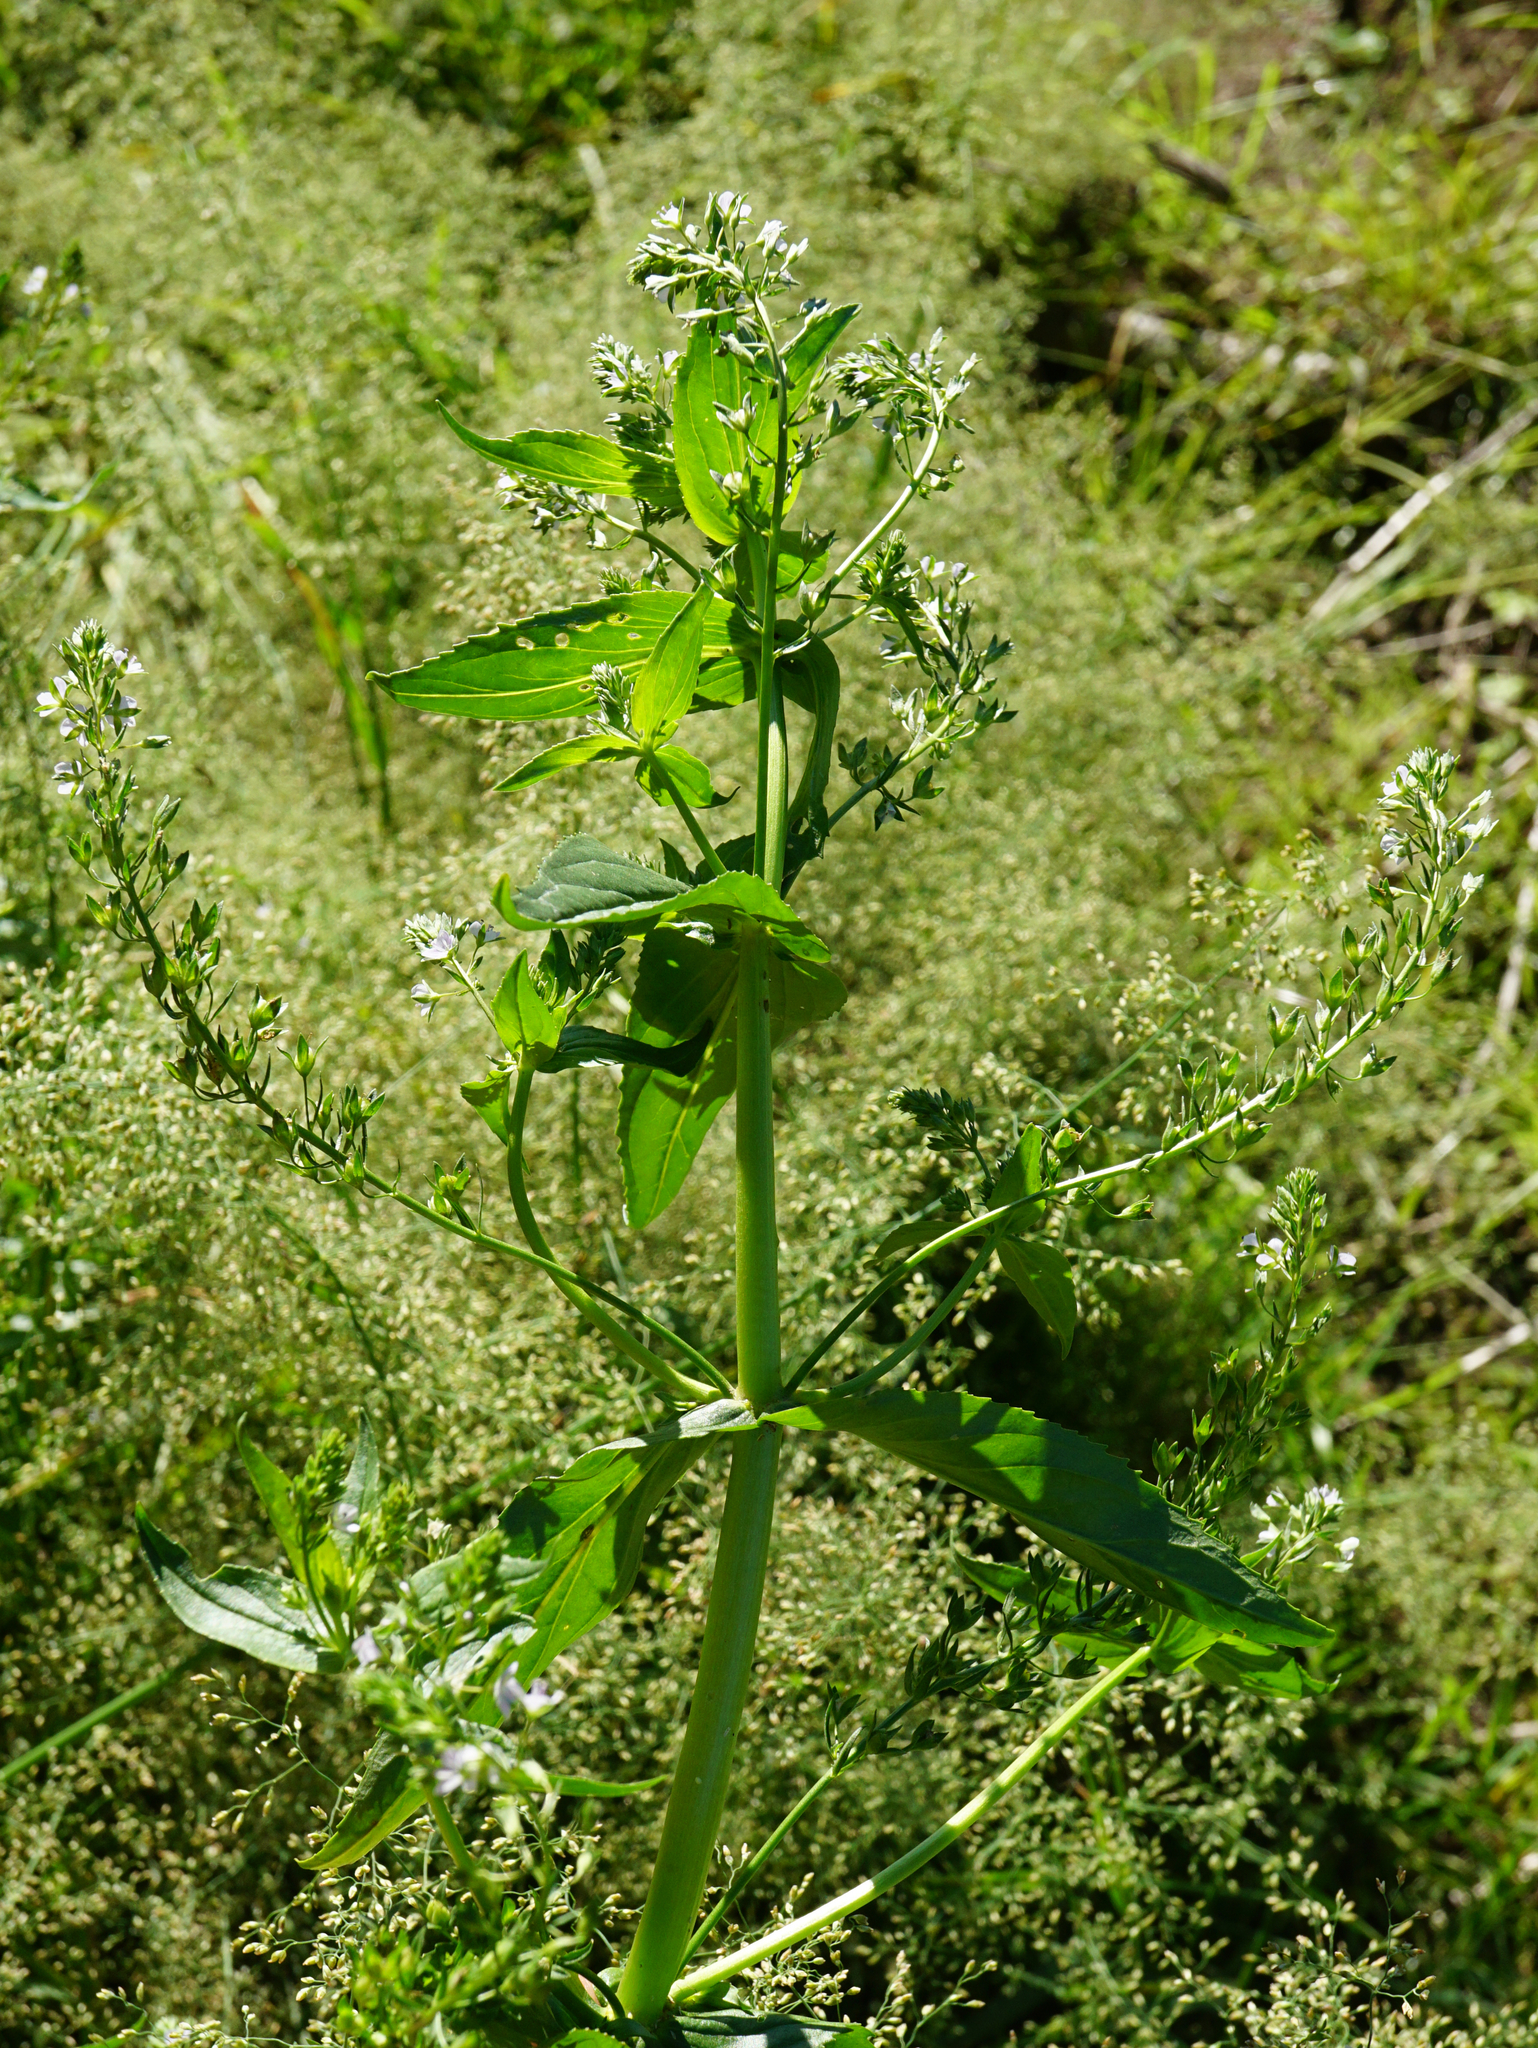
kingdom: Plantae
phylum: Tracheophyta
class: Magnoliopsida
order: Lamiales
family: Plantaginaceae
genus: Veronica
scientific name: Veronica anagallis-aquatica
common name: Water speedwell
